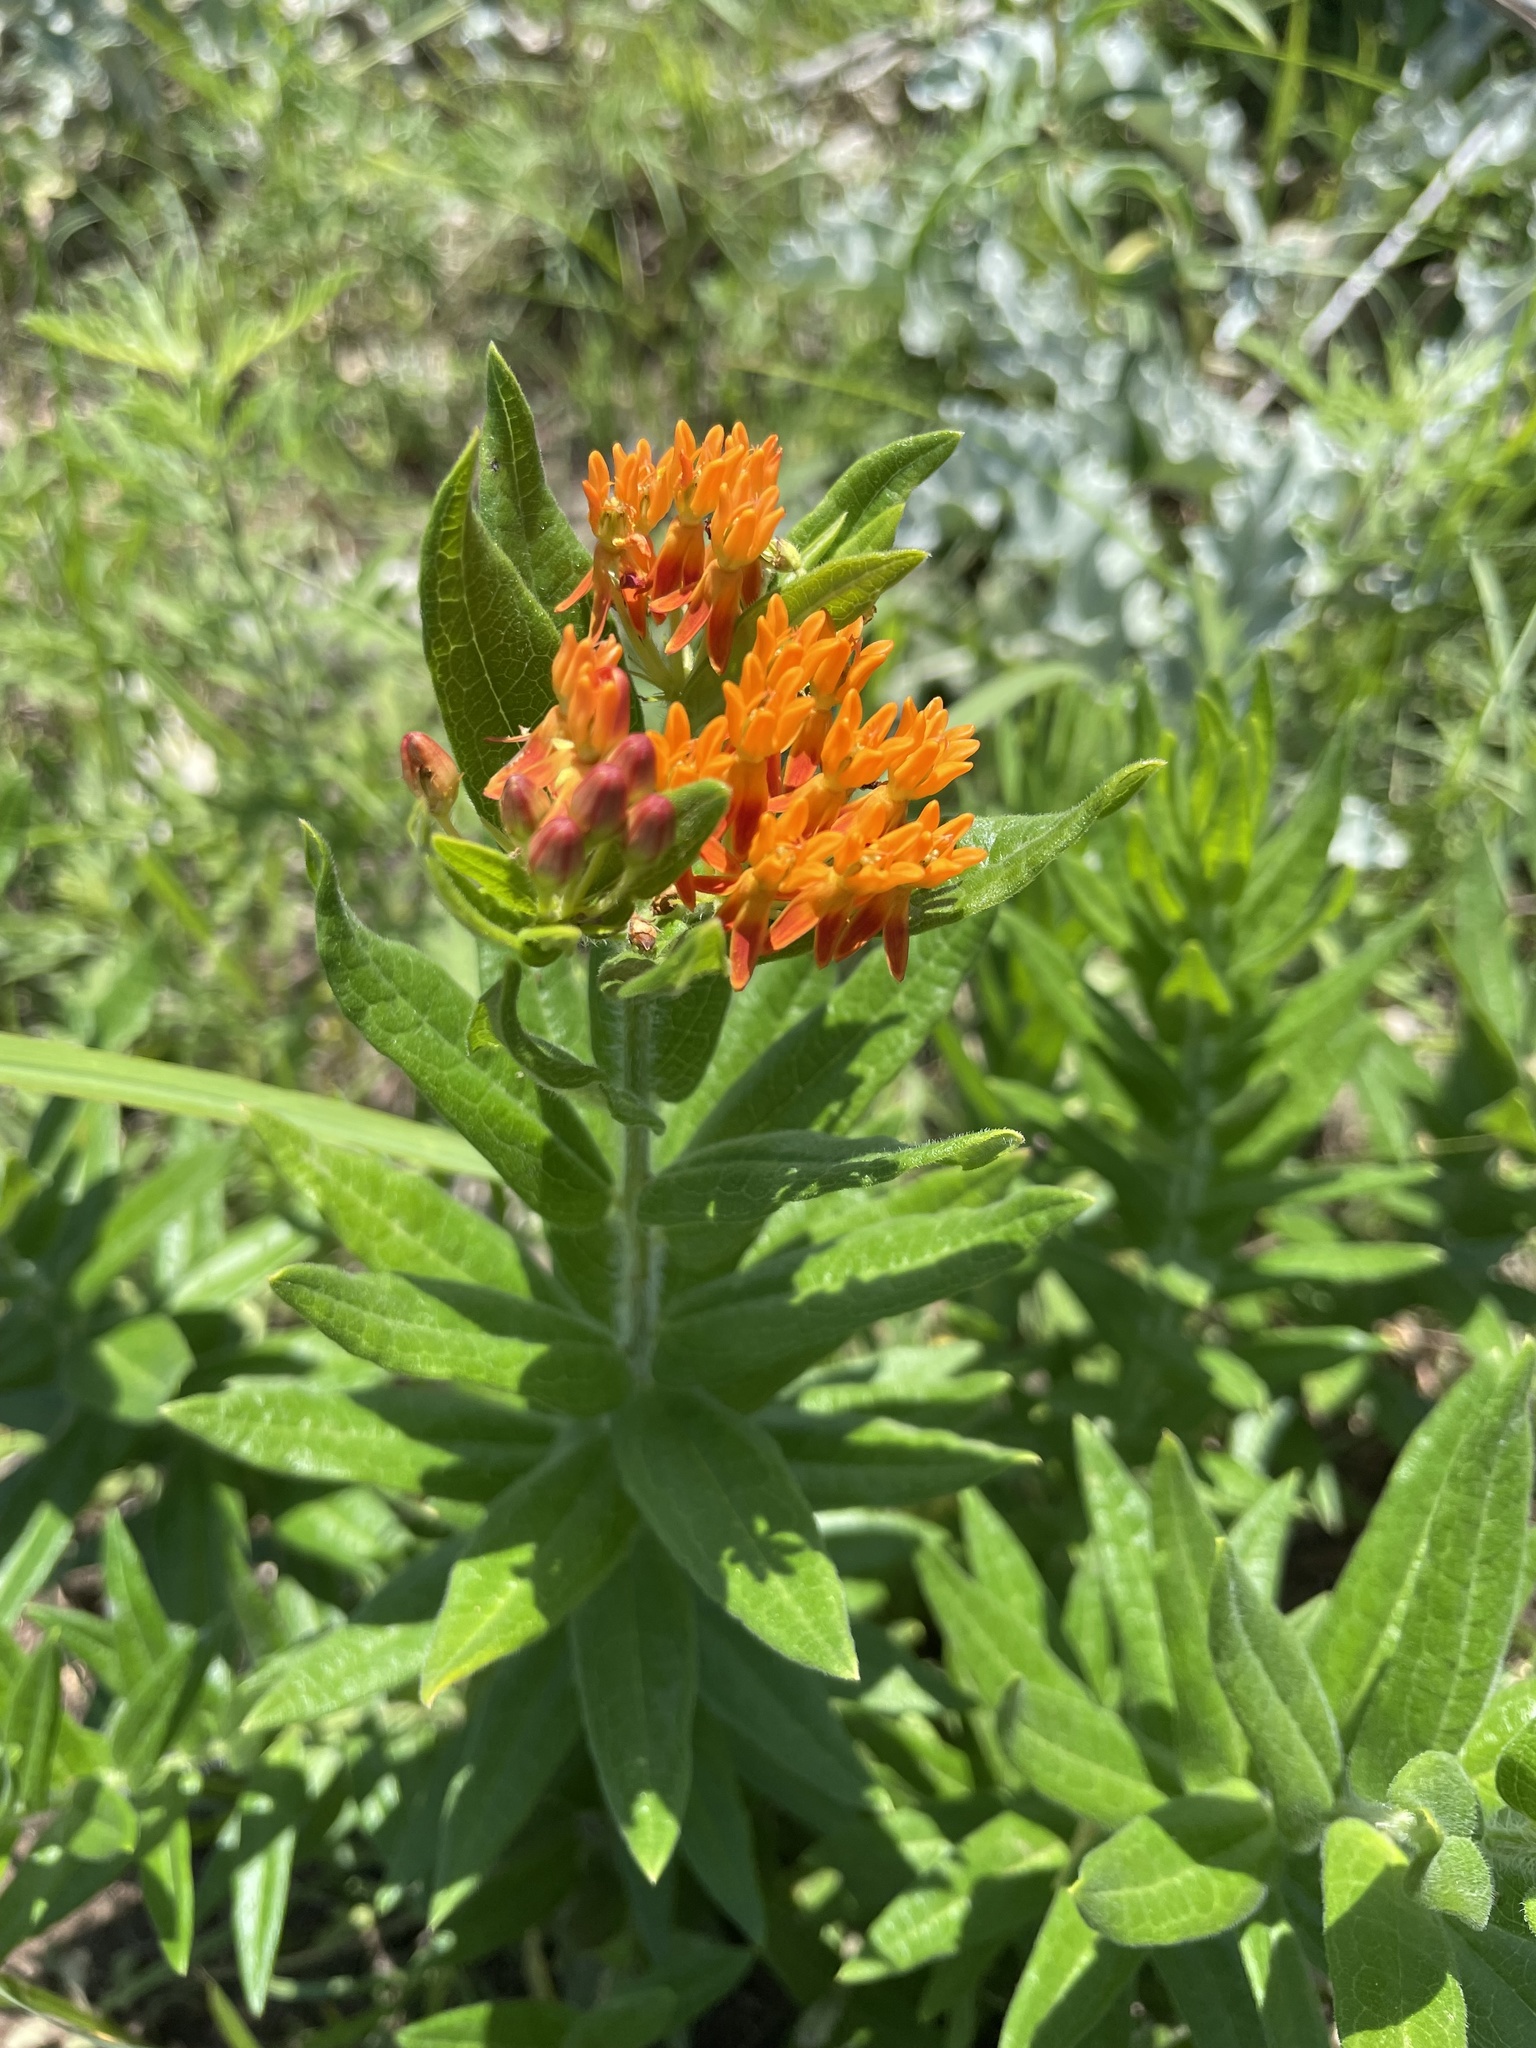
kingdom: Plantae
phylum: Tracheophyta
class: Magnoliopsida
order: Gentianales
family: Apocynaceae
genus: Asclepias
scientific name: Asclepias tuberosa
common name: Butterfly milkweed
